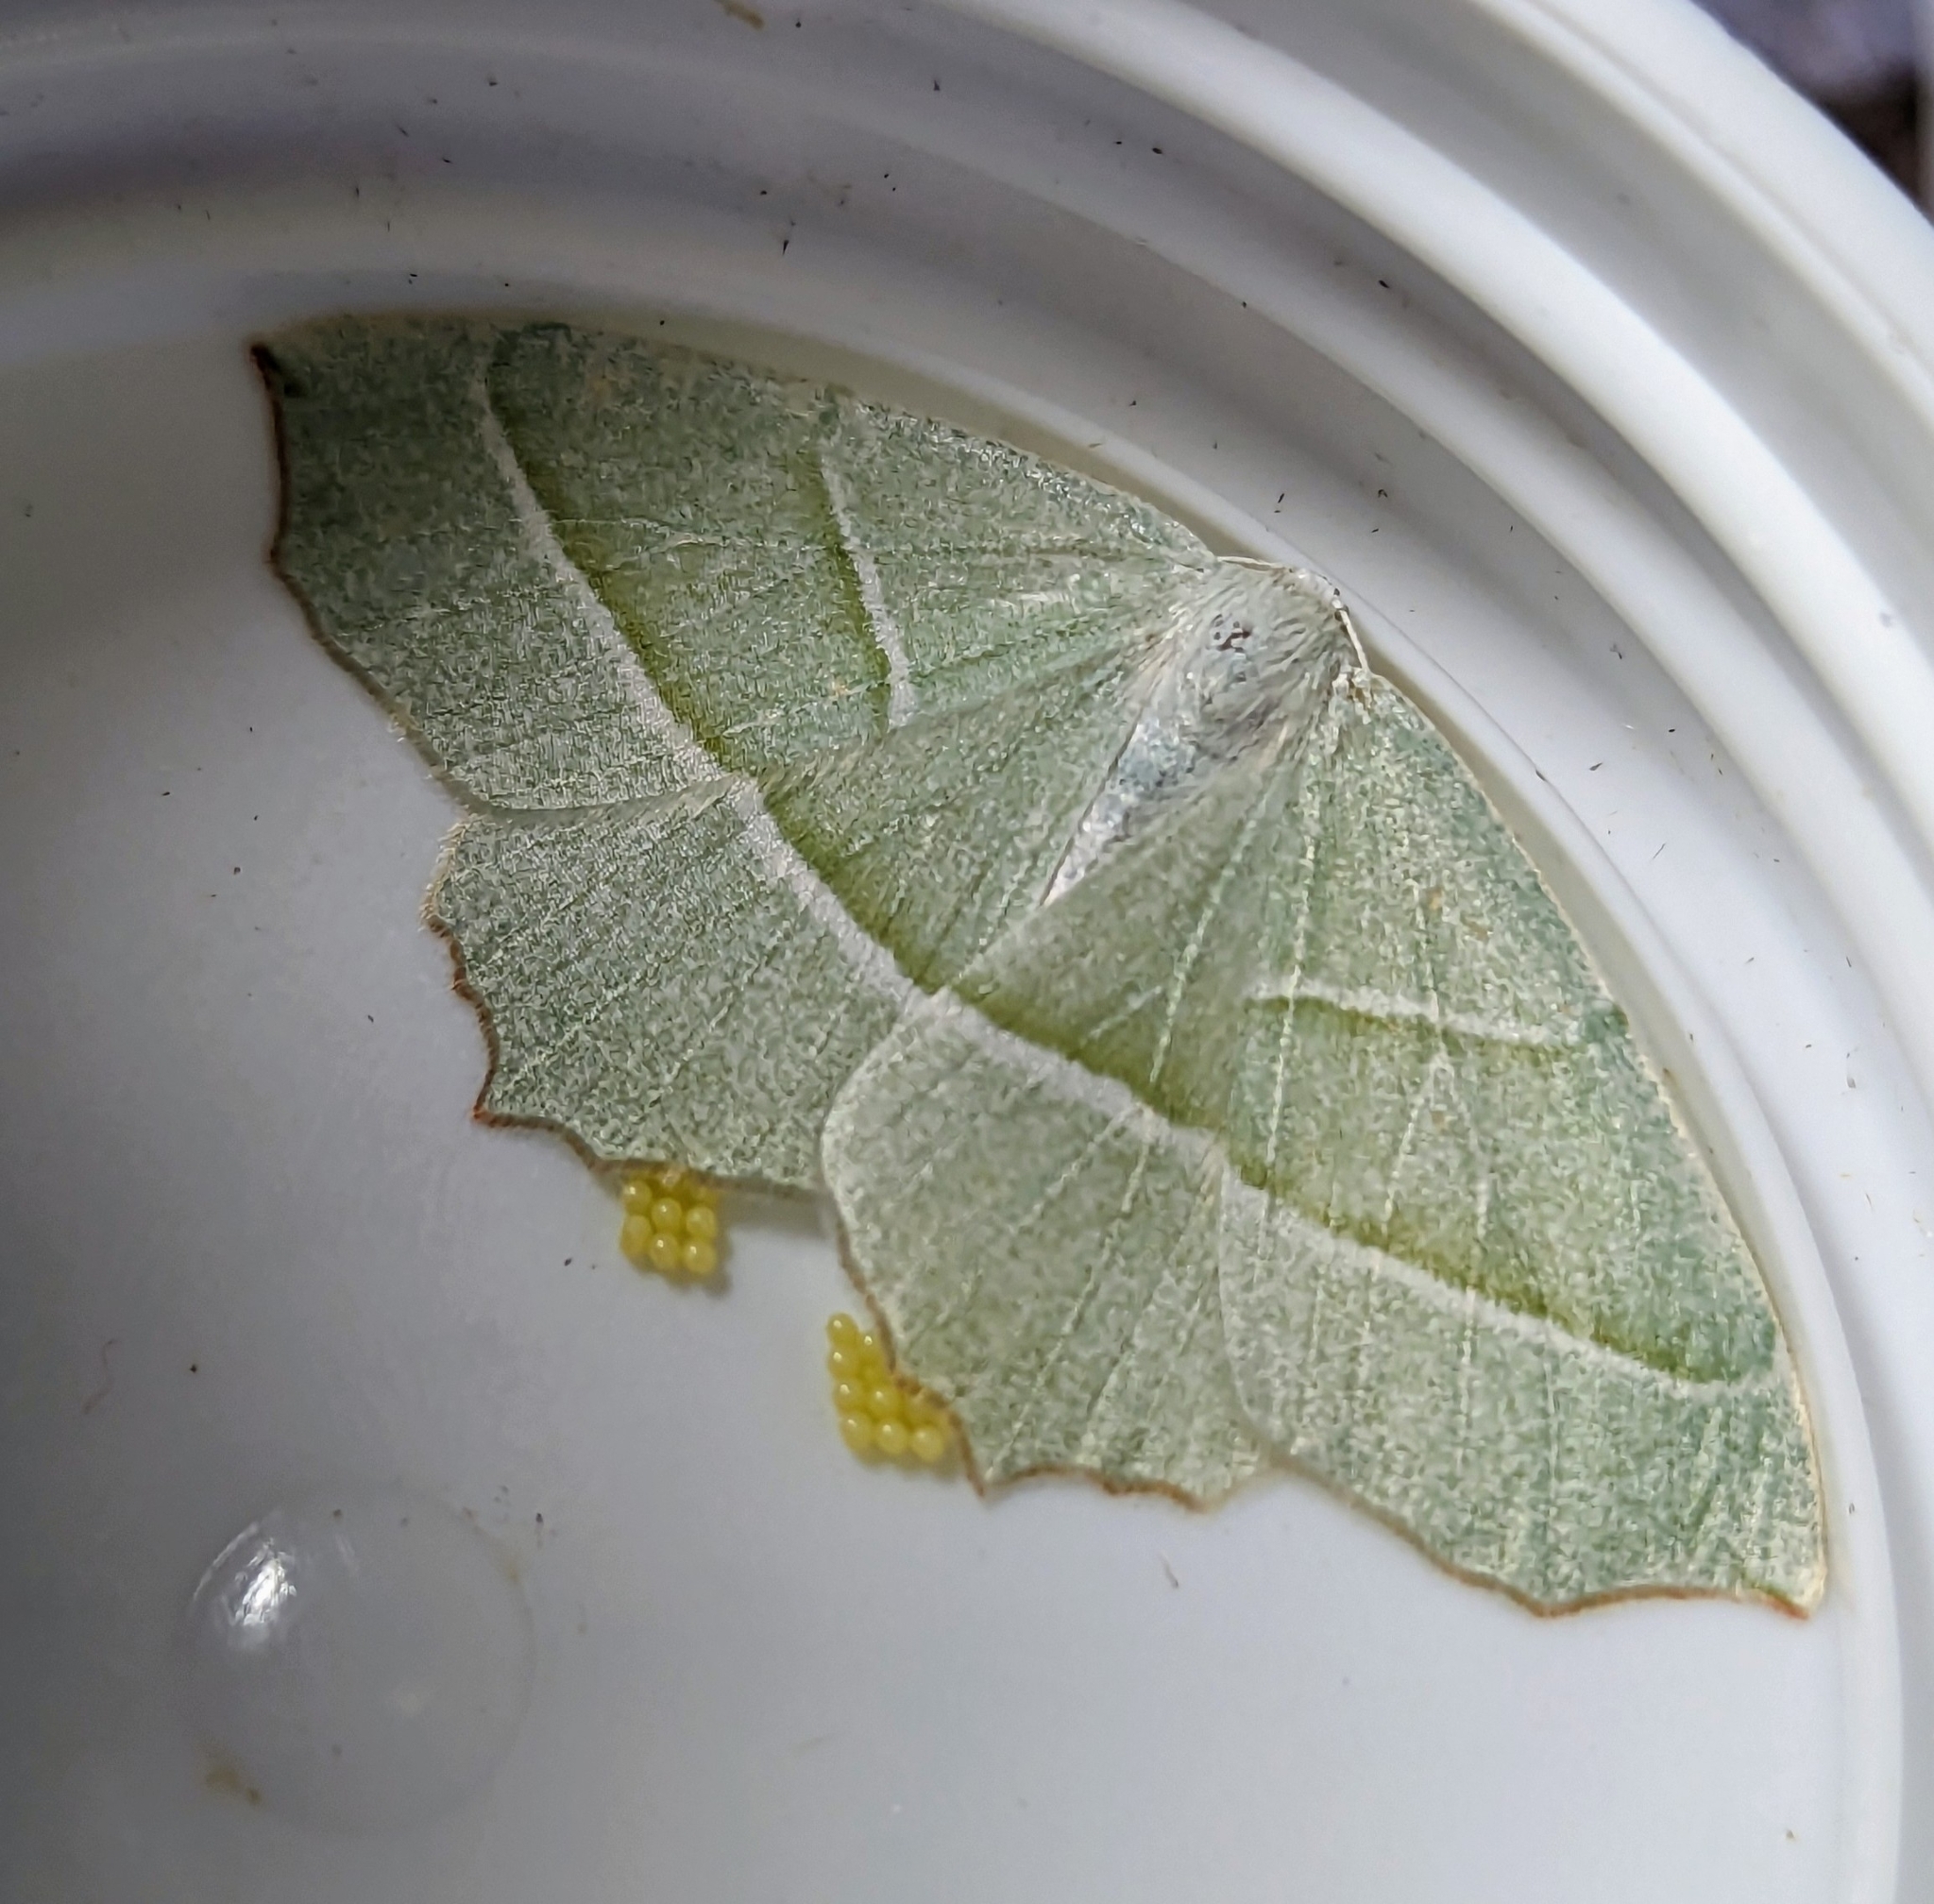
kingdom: Animalia
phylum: Arthropoda
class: Insecta
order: Lepidoptera
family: Geometridae
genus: Campaea
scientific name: Campaea margaritaria
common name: Light emerald
